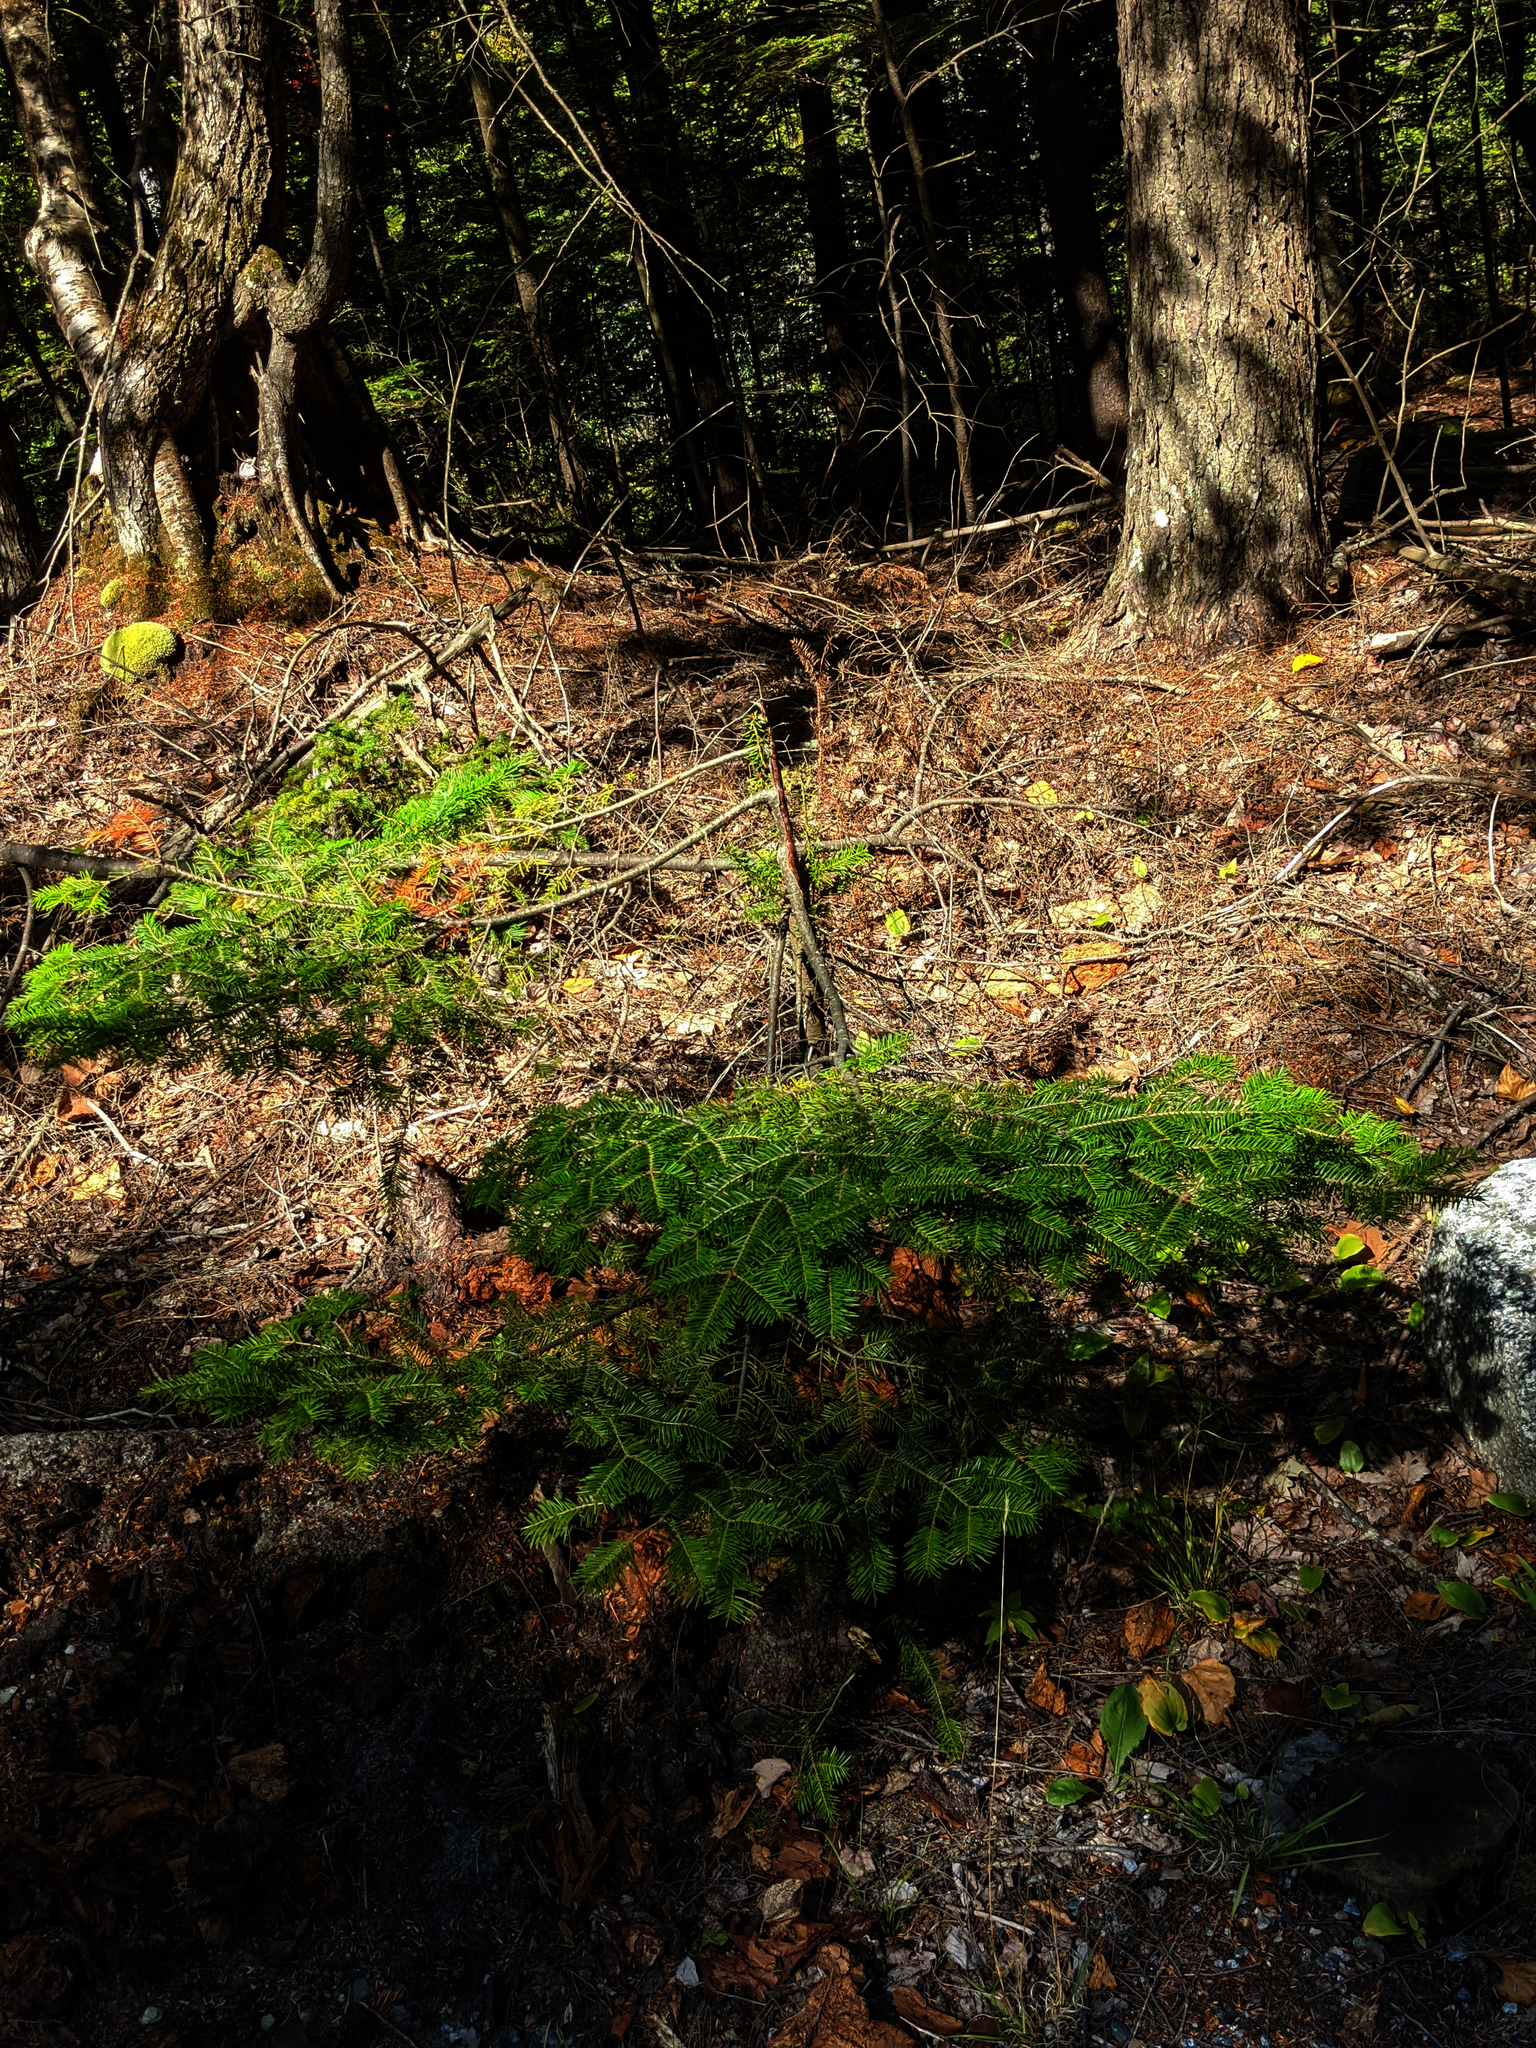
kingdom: Plantae
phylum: Tracheophyta
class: Pinopsida
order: Pinales
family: Pinaceae
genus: Abies
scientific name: Abies balsamea
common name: Balsam fir
